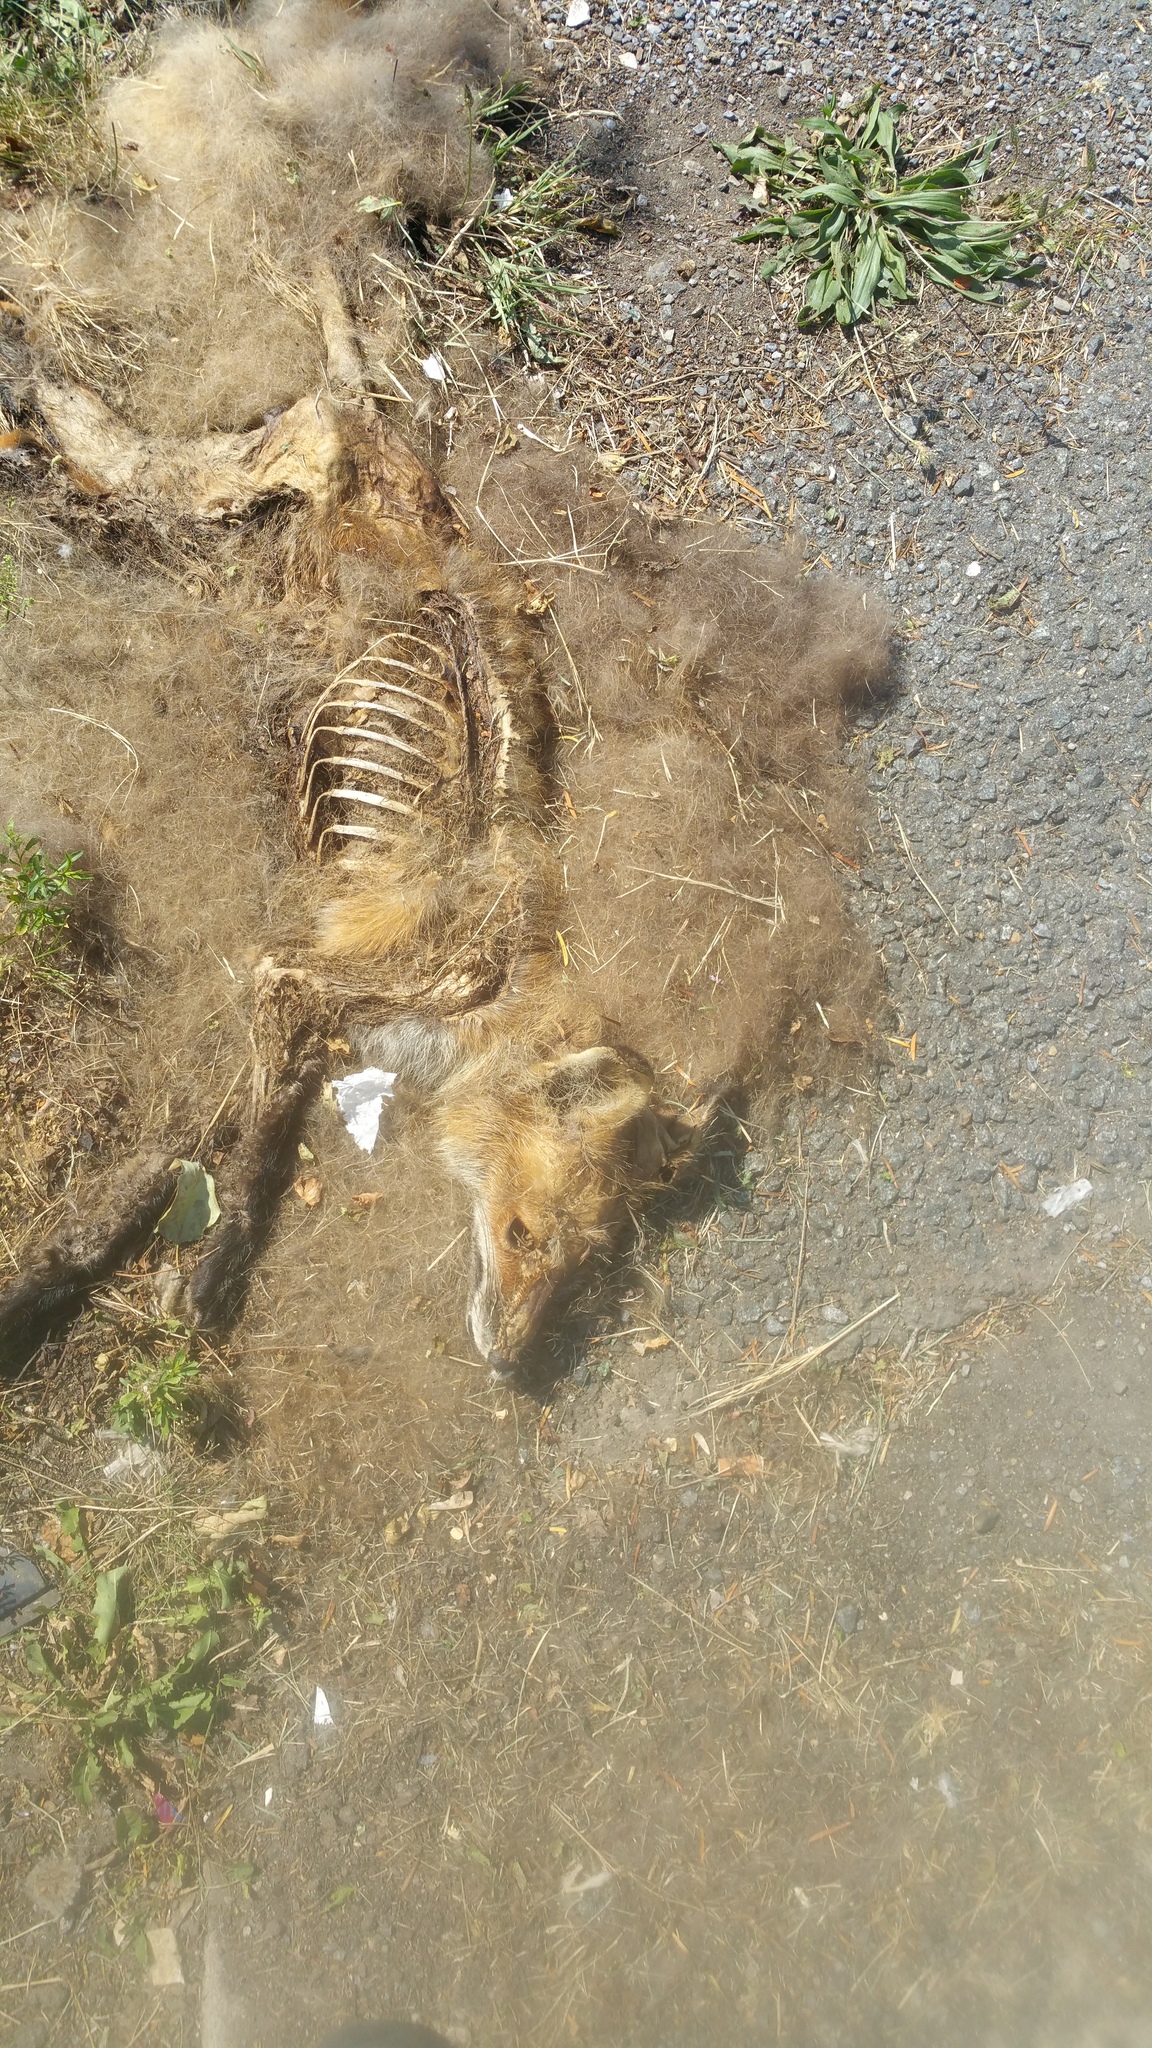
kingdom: Animalia
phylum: Chordata
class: Mammalia
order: Carnivora
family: Canidae
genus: Vulpes
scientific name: Vulpes vulpes
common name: Red fox
